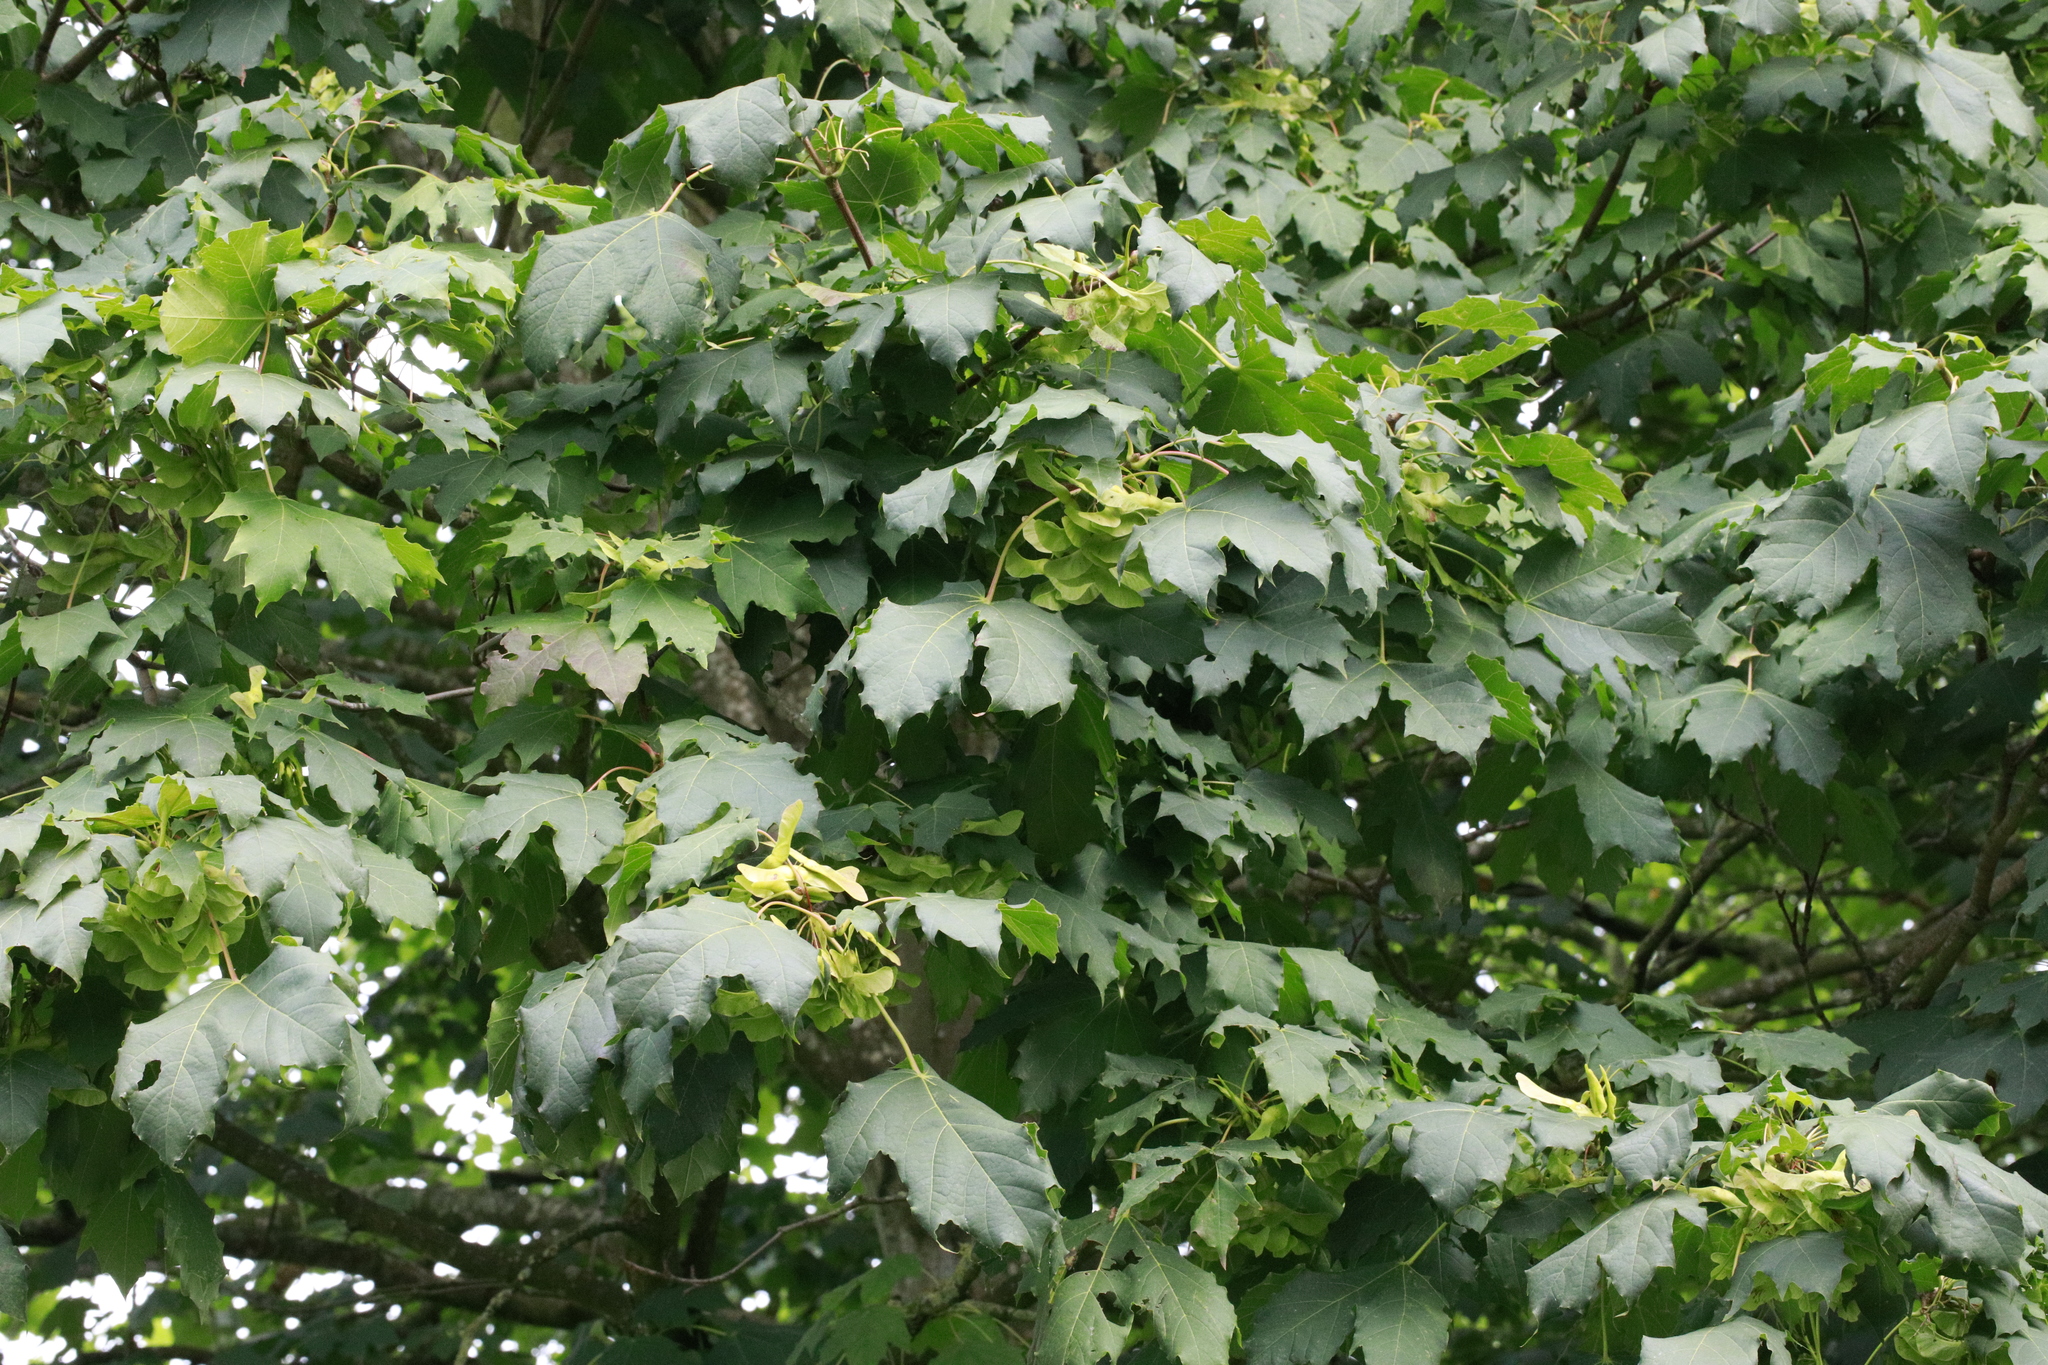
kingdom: Plantae
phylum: Tracheophyta
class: Magnoliopsida
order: Proteales
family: Platanaceae
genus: Platanus
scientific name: Platanus hispanica
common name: London plane
